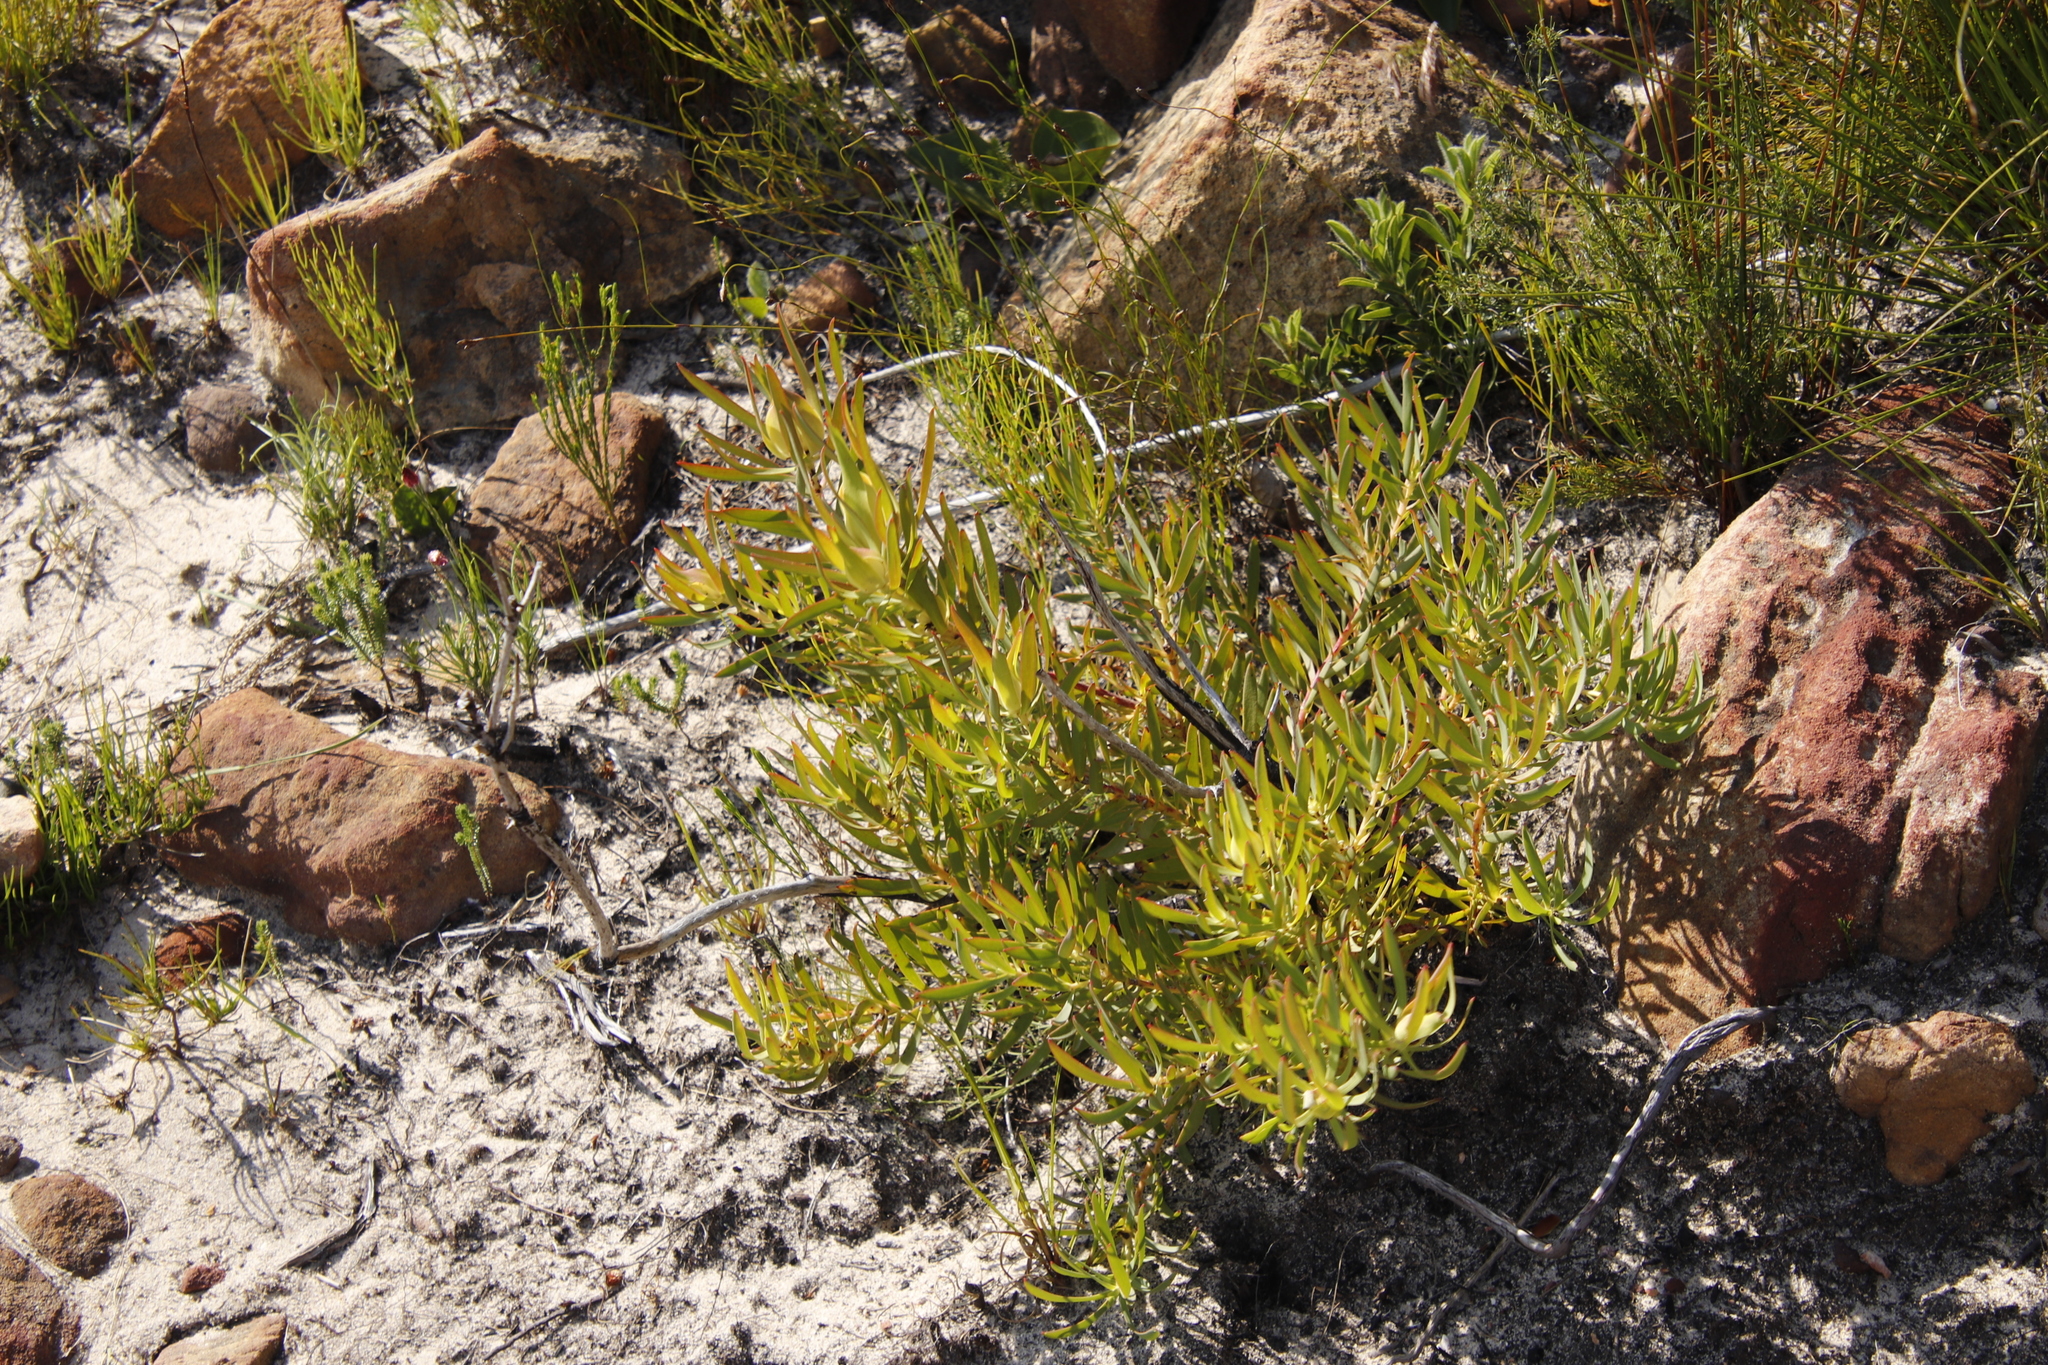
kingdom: Plantae
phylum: Tracheophyta
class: Magnoliopsida
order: Proteales
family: Proteaceae
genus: Leucadendron
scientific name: Leucadendron salignum
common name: Common sunshine conebush
